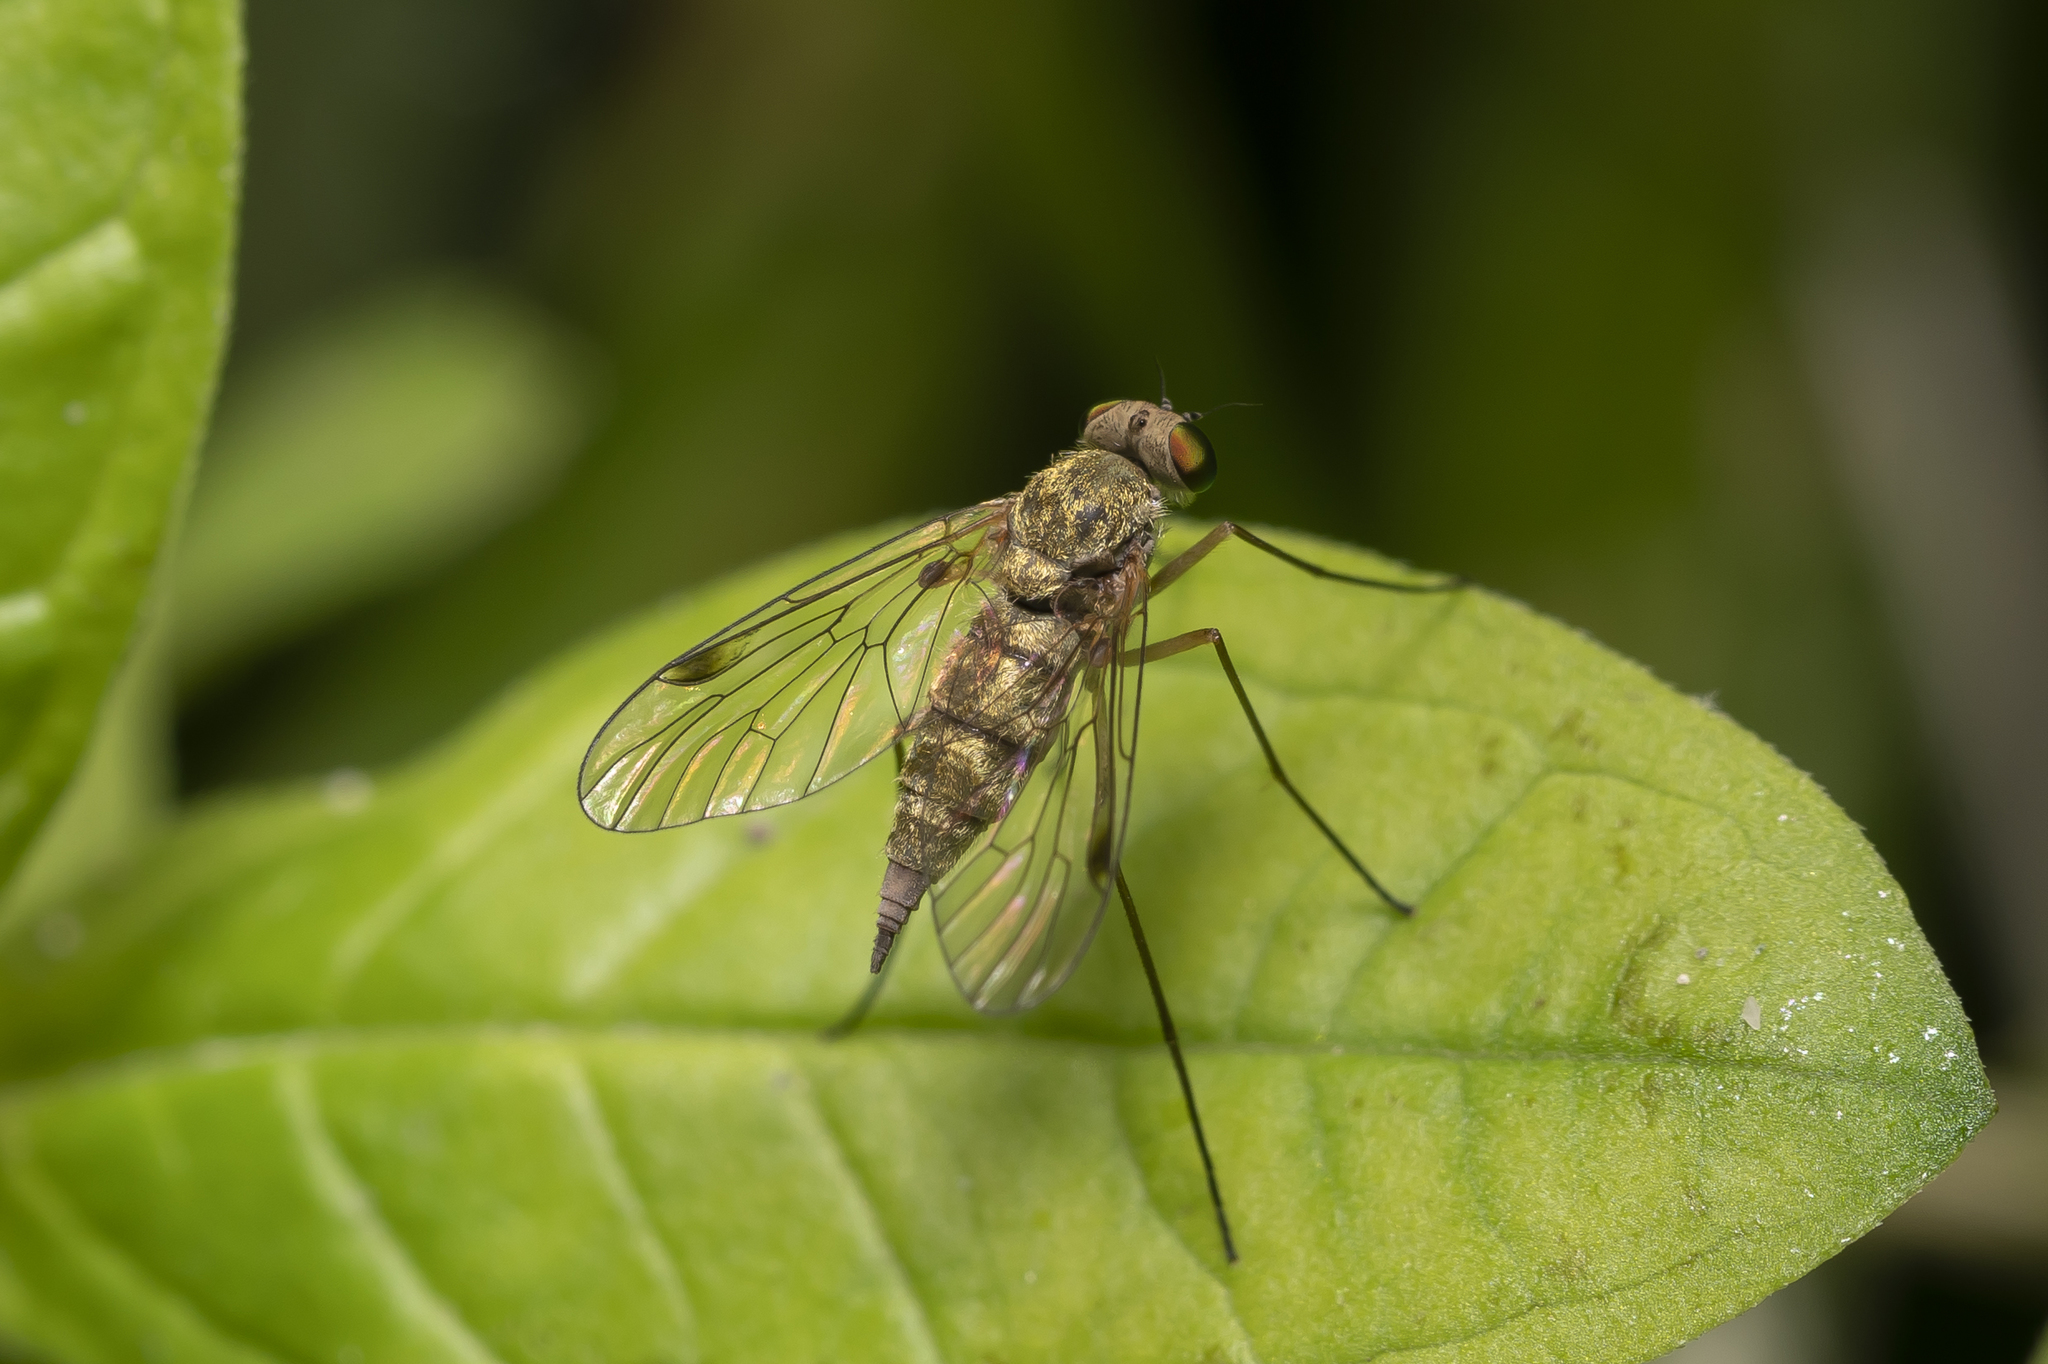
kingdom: Animalia
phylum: Arthropoda
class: Insecta
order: Diptera
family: Rhagionidae
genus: Chrysopilus
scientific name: Chrysopilus asiliformis
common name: Little snipefly
